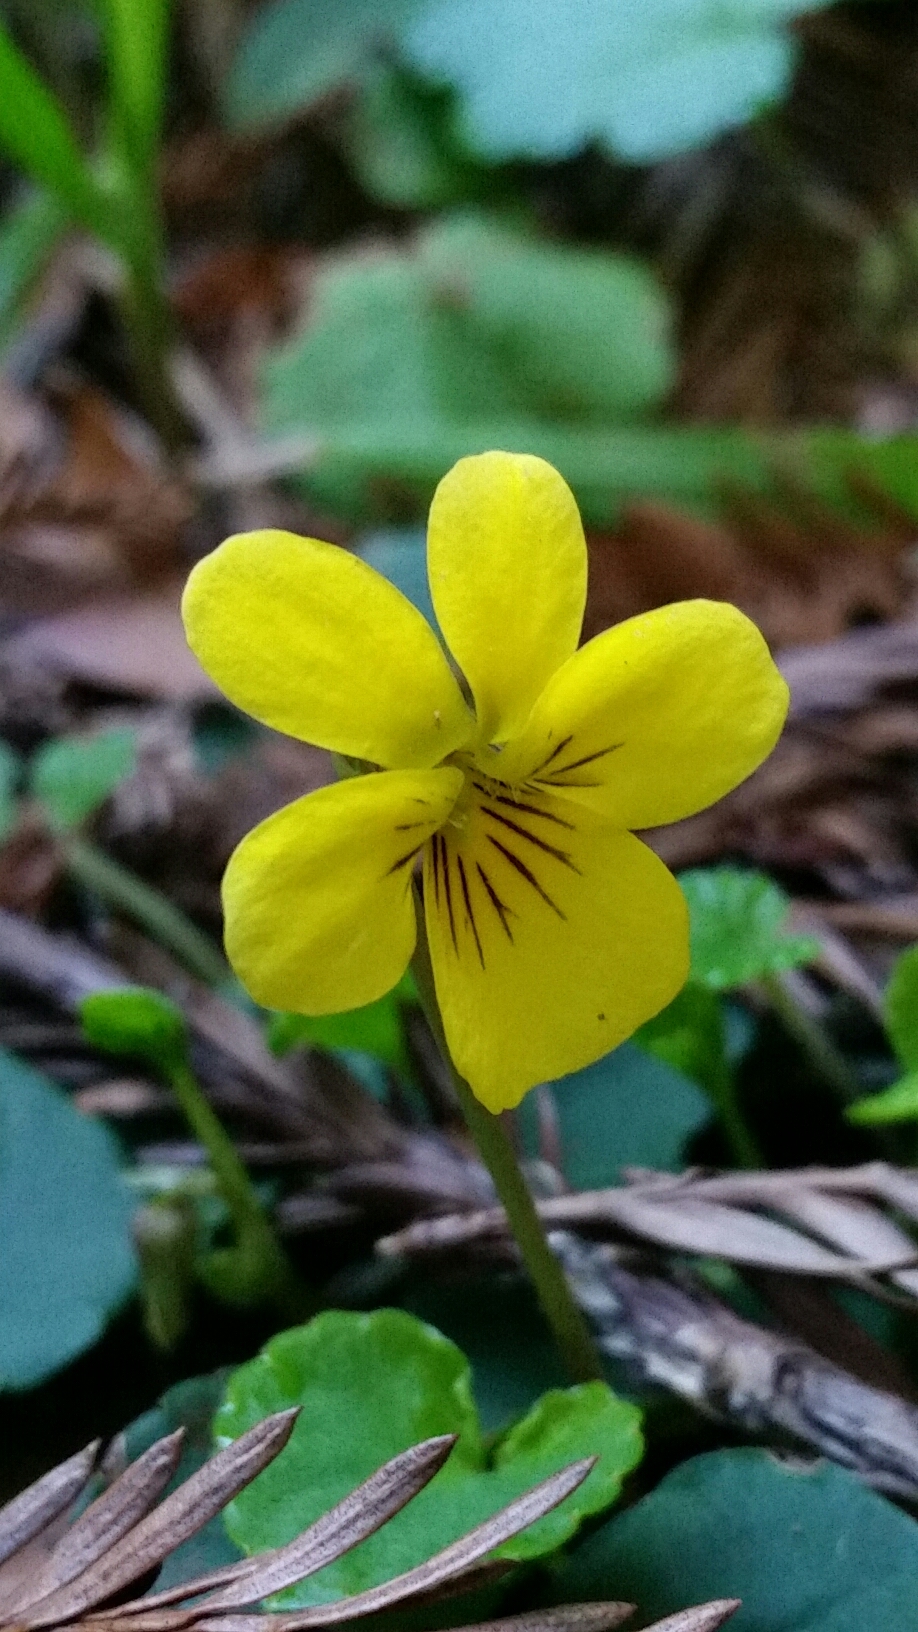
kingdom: Plantae
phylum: Tracheophyta
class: Magnoliopsida
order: Malpighiales
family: Violaceae
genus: Viola
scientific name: Viola sempervirens
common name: Evergreen violet
